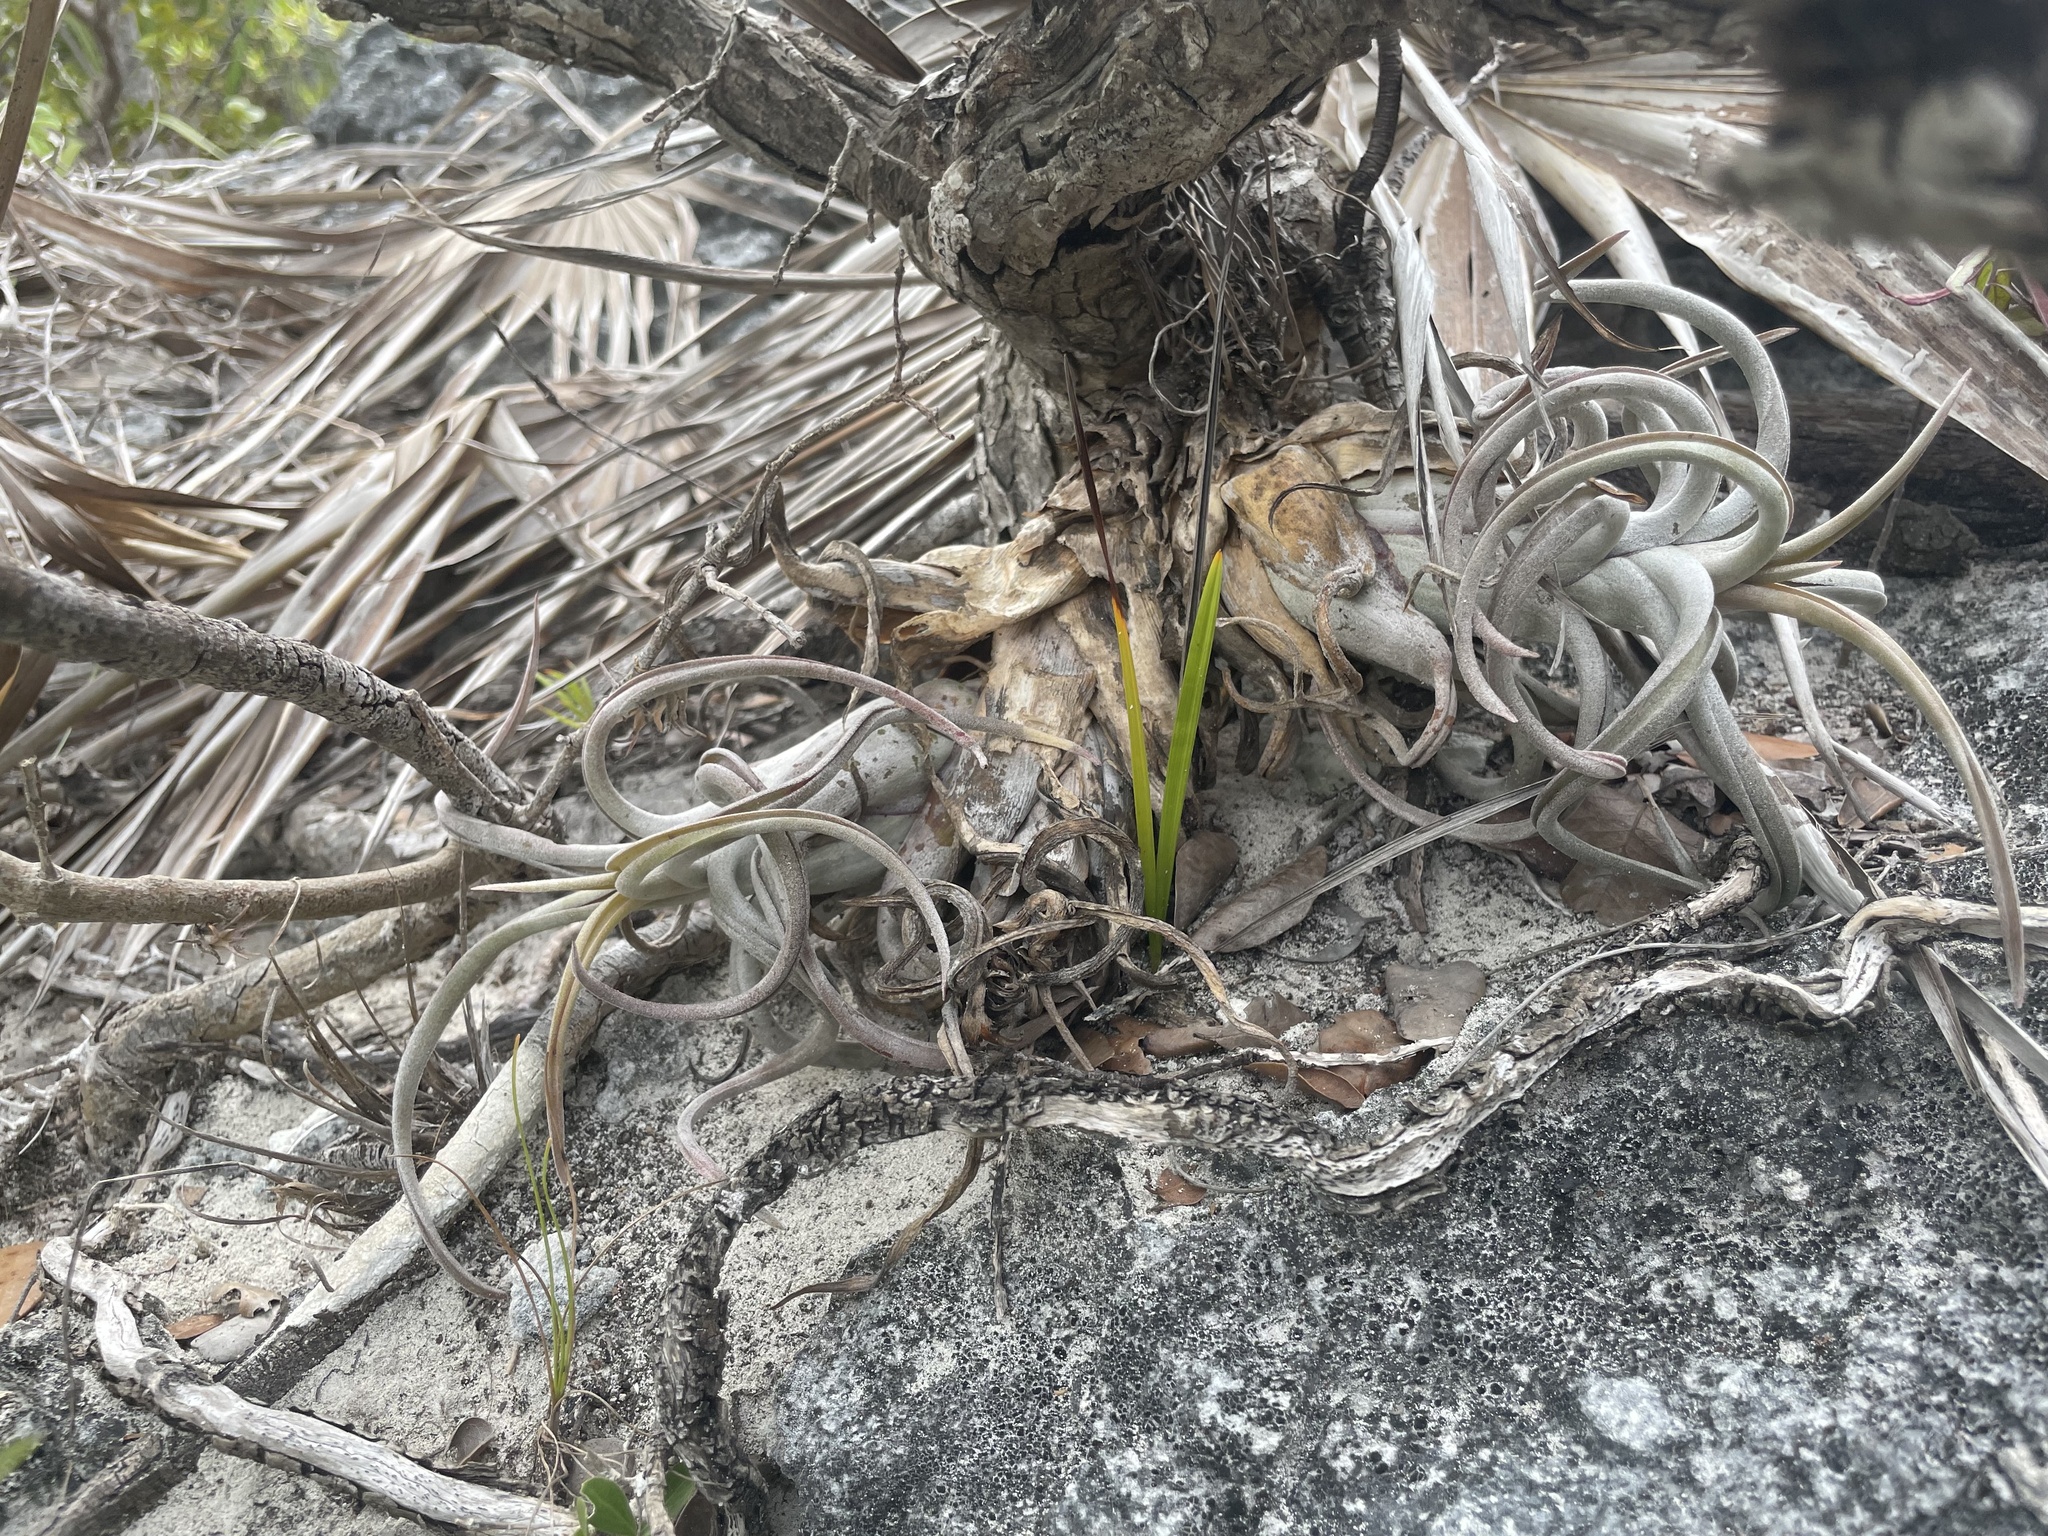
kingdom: Plantae
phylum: Tracheophyta
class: Liliopsida
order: Poales
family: Bromeliaceae
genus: Tillandsia
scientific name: Tillandsia paucifolia
